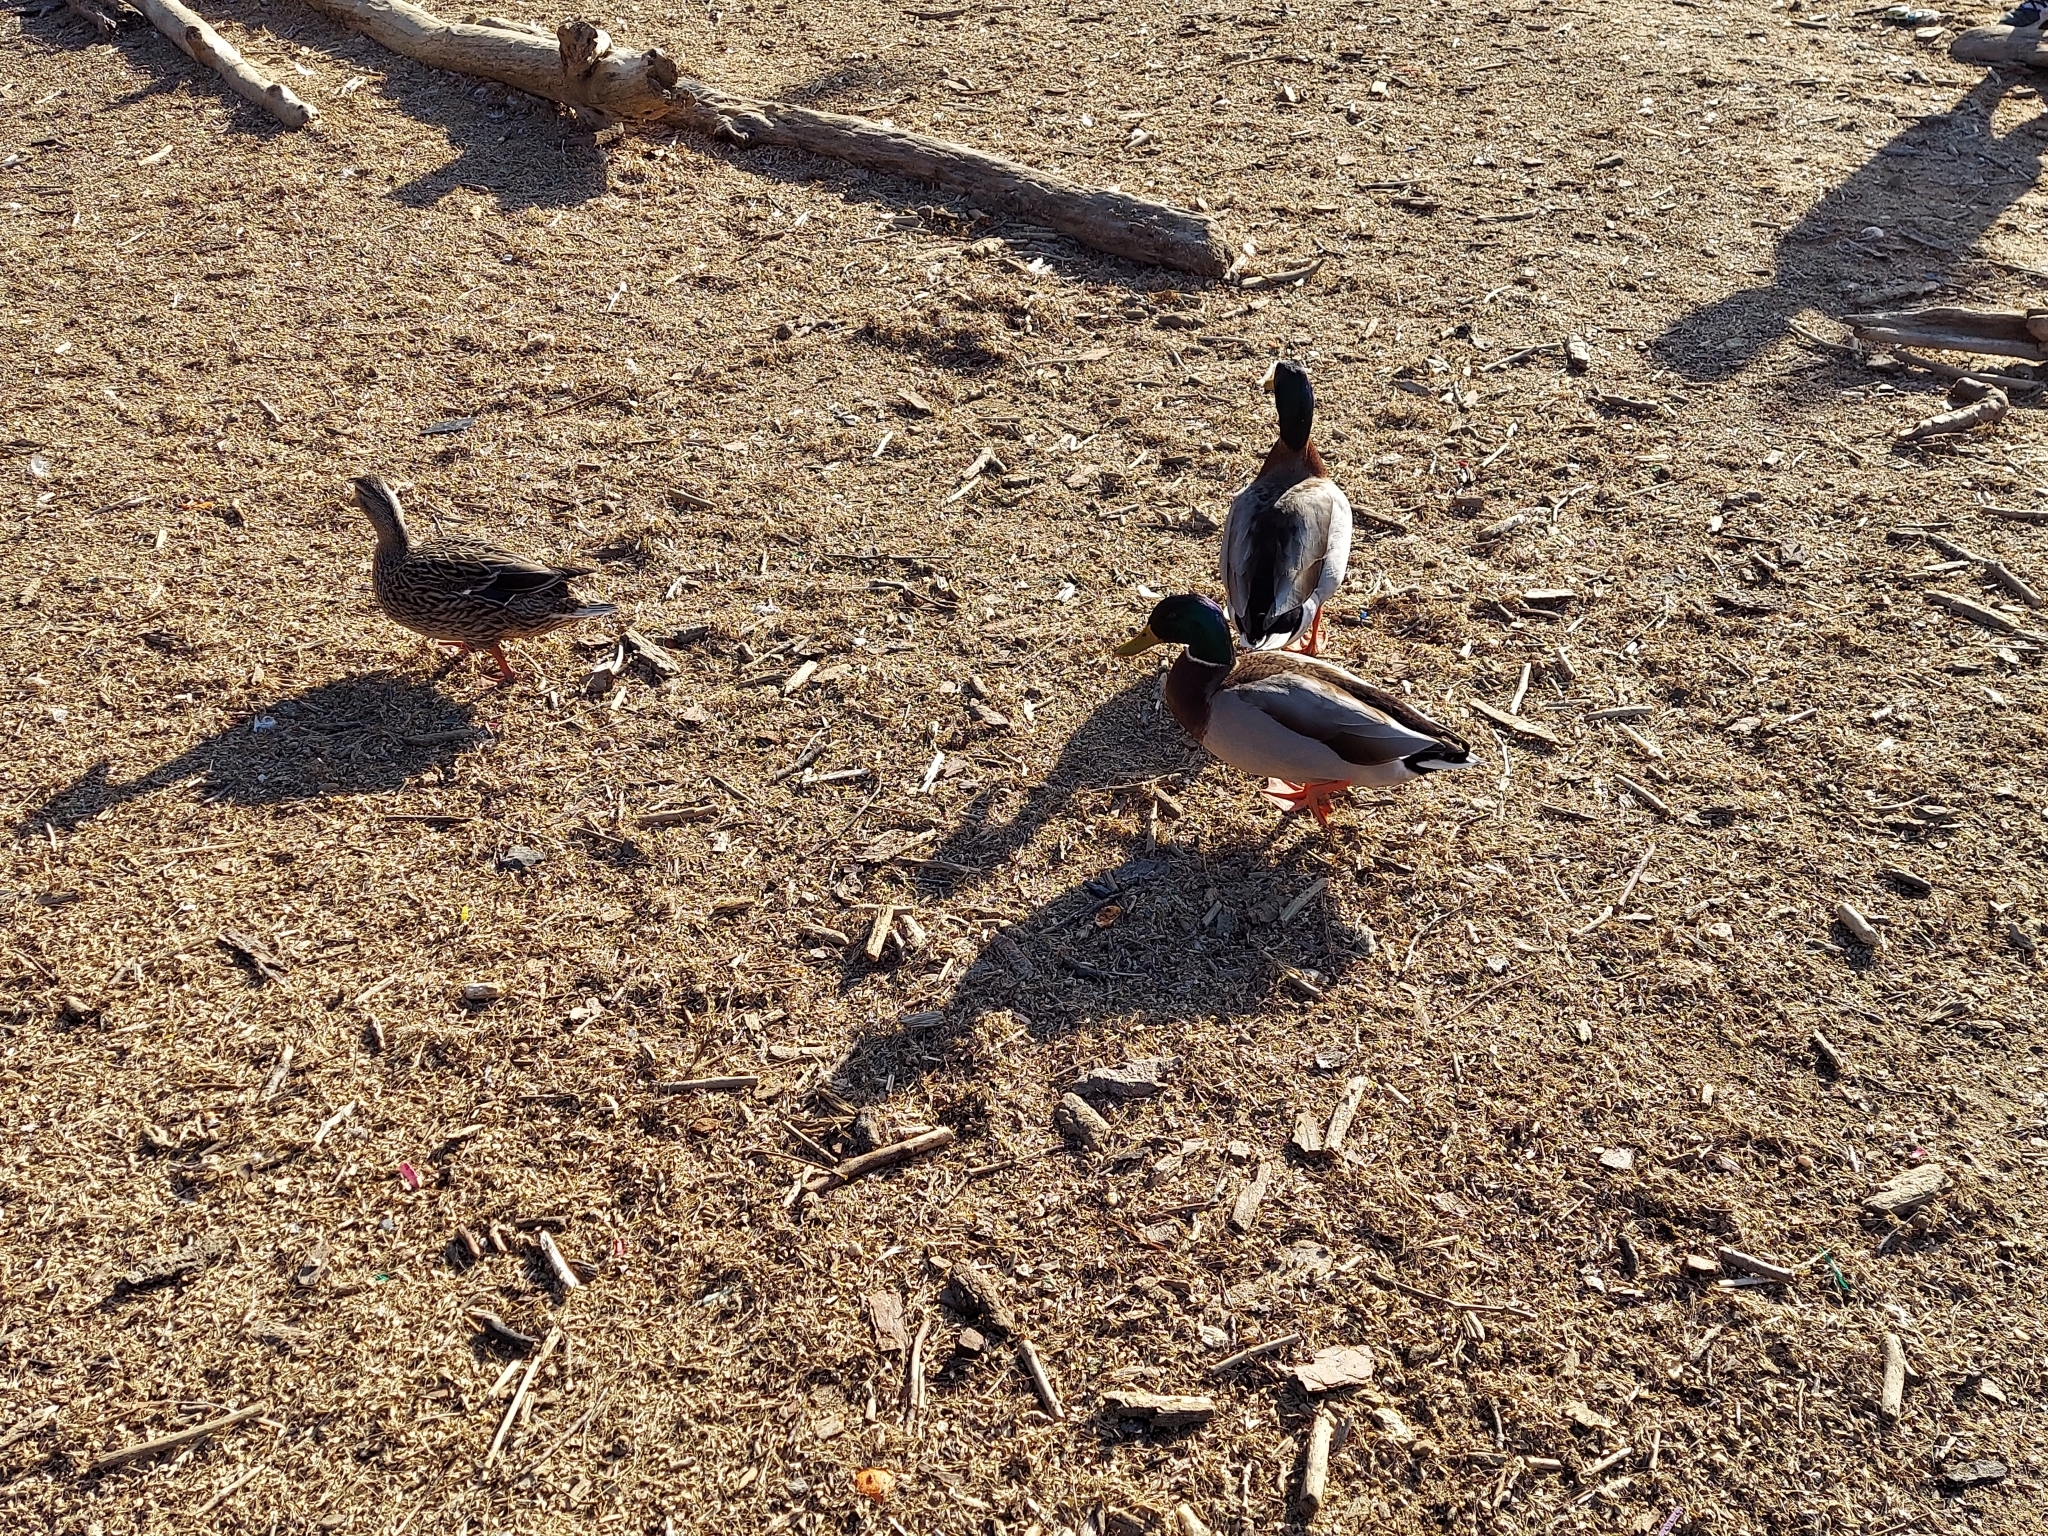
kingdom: Animalia
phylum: Chordata
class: Aves
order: Anseriformes
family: Anatidae
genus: Anas
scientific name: Anas platyrhynchos
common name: Mallard
